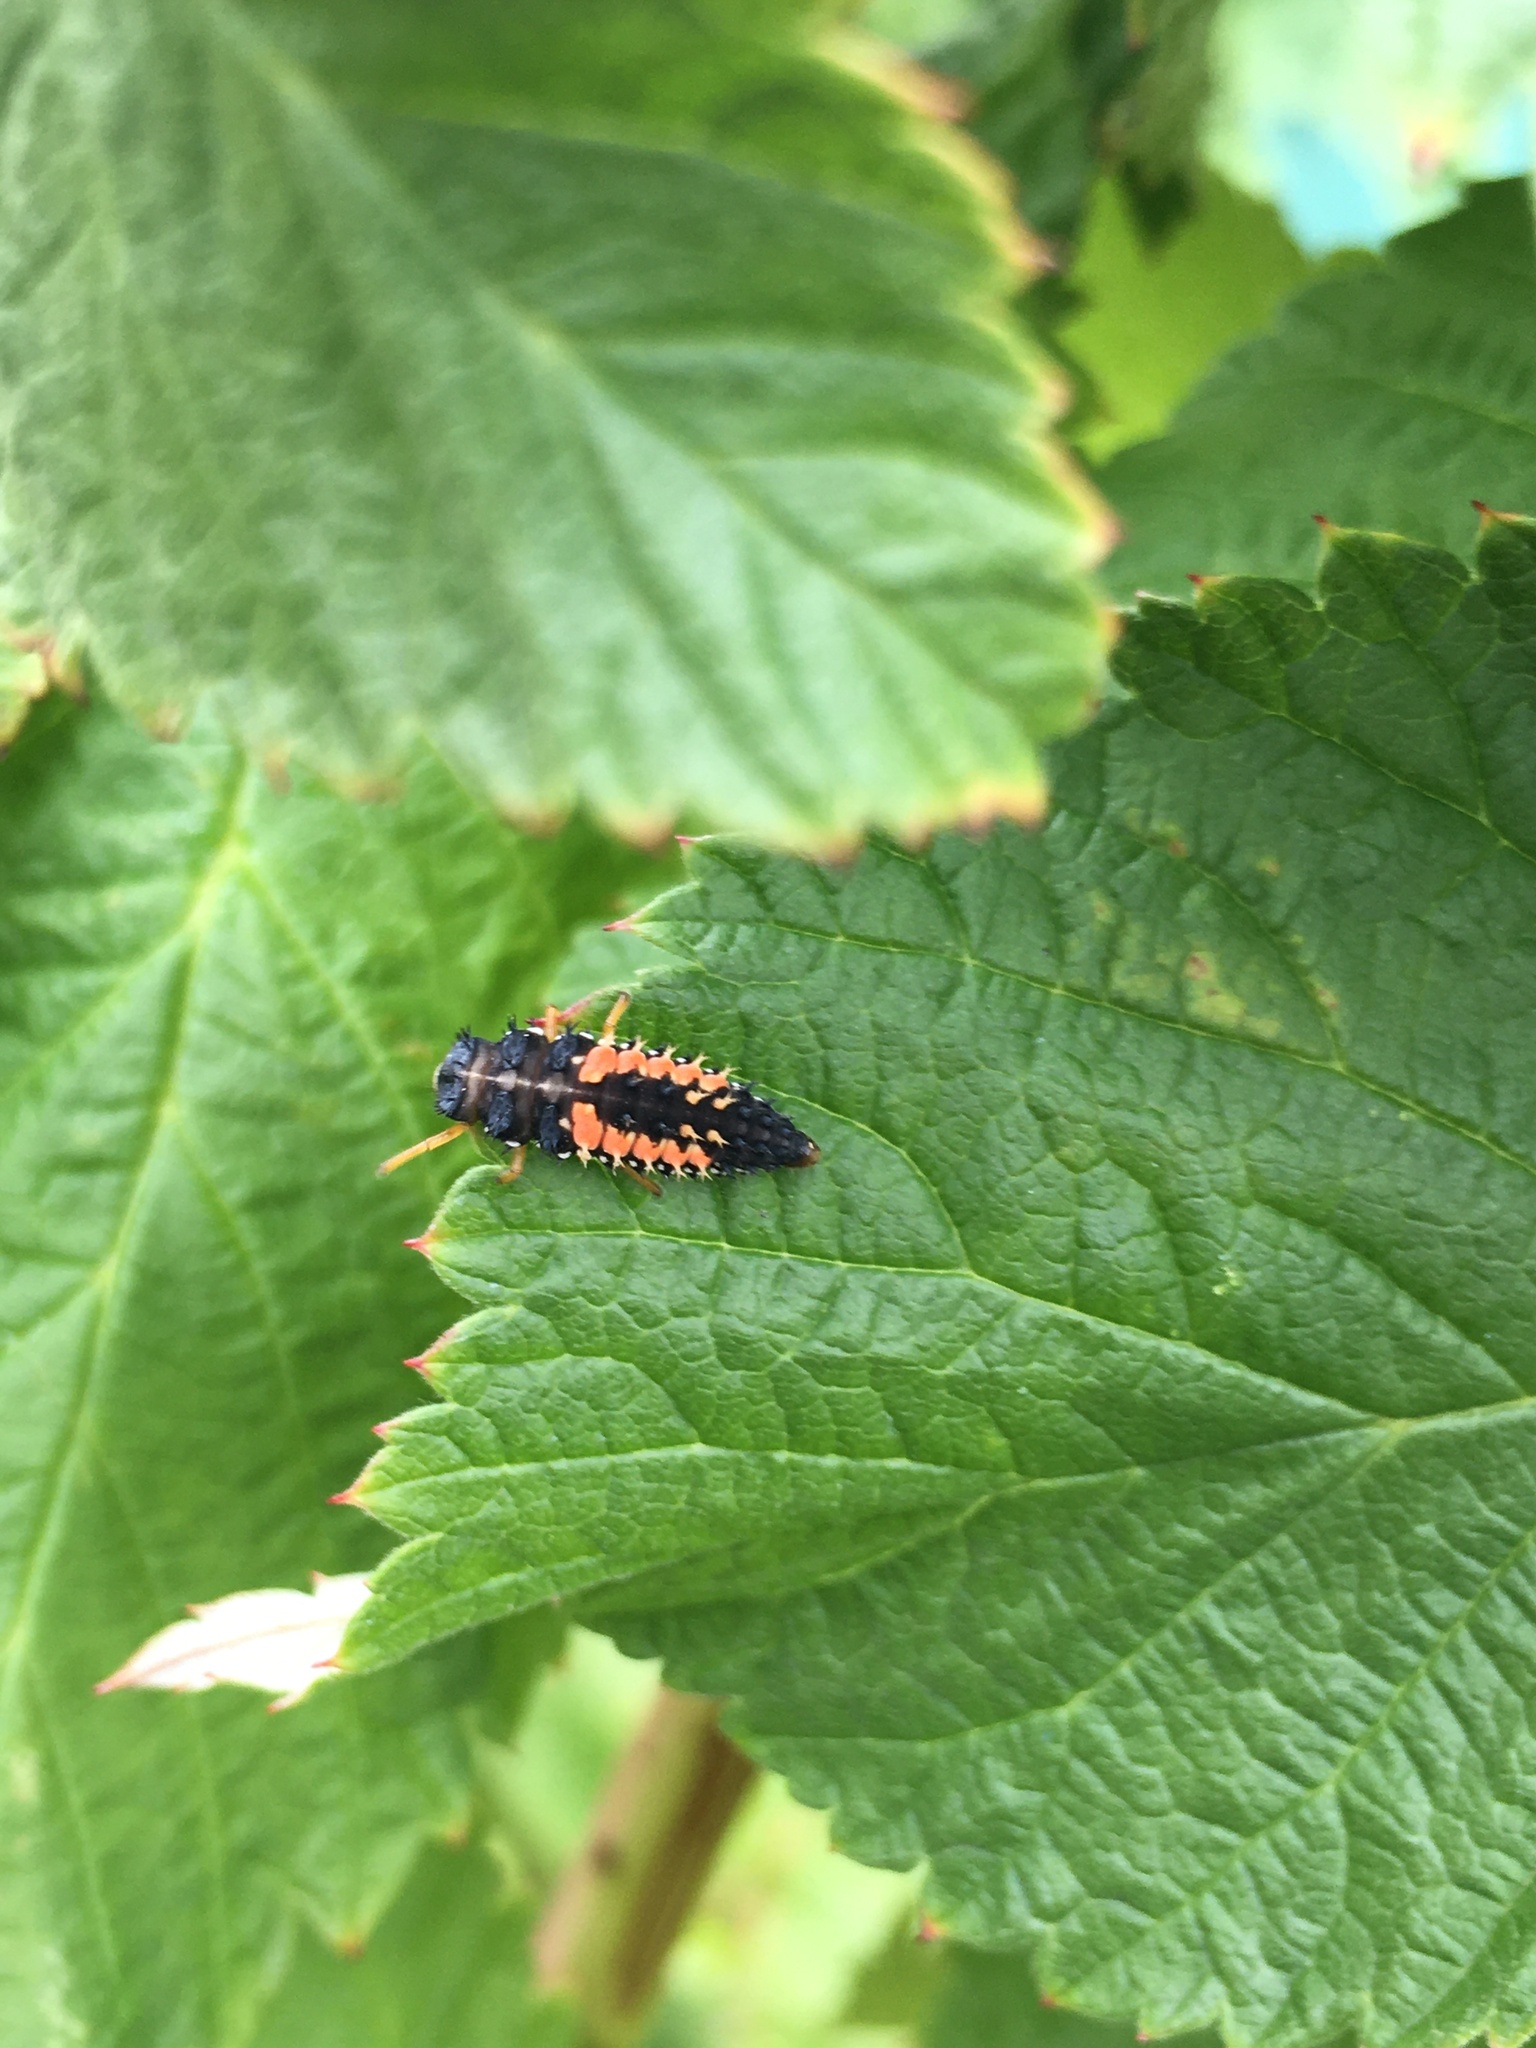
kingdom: Animalia
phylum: Arthropoda
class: Insecta
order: Coleoptera
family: Coccinellidae
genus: Harmonia
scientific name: Harmonia axyridis
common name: Harlequin ladybird
